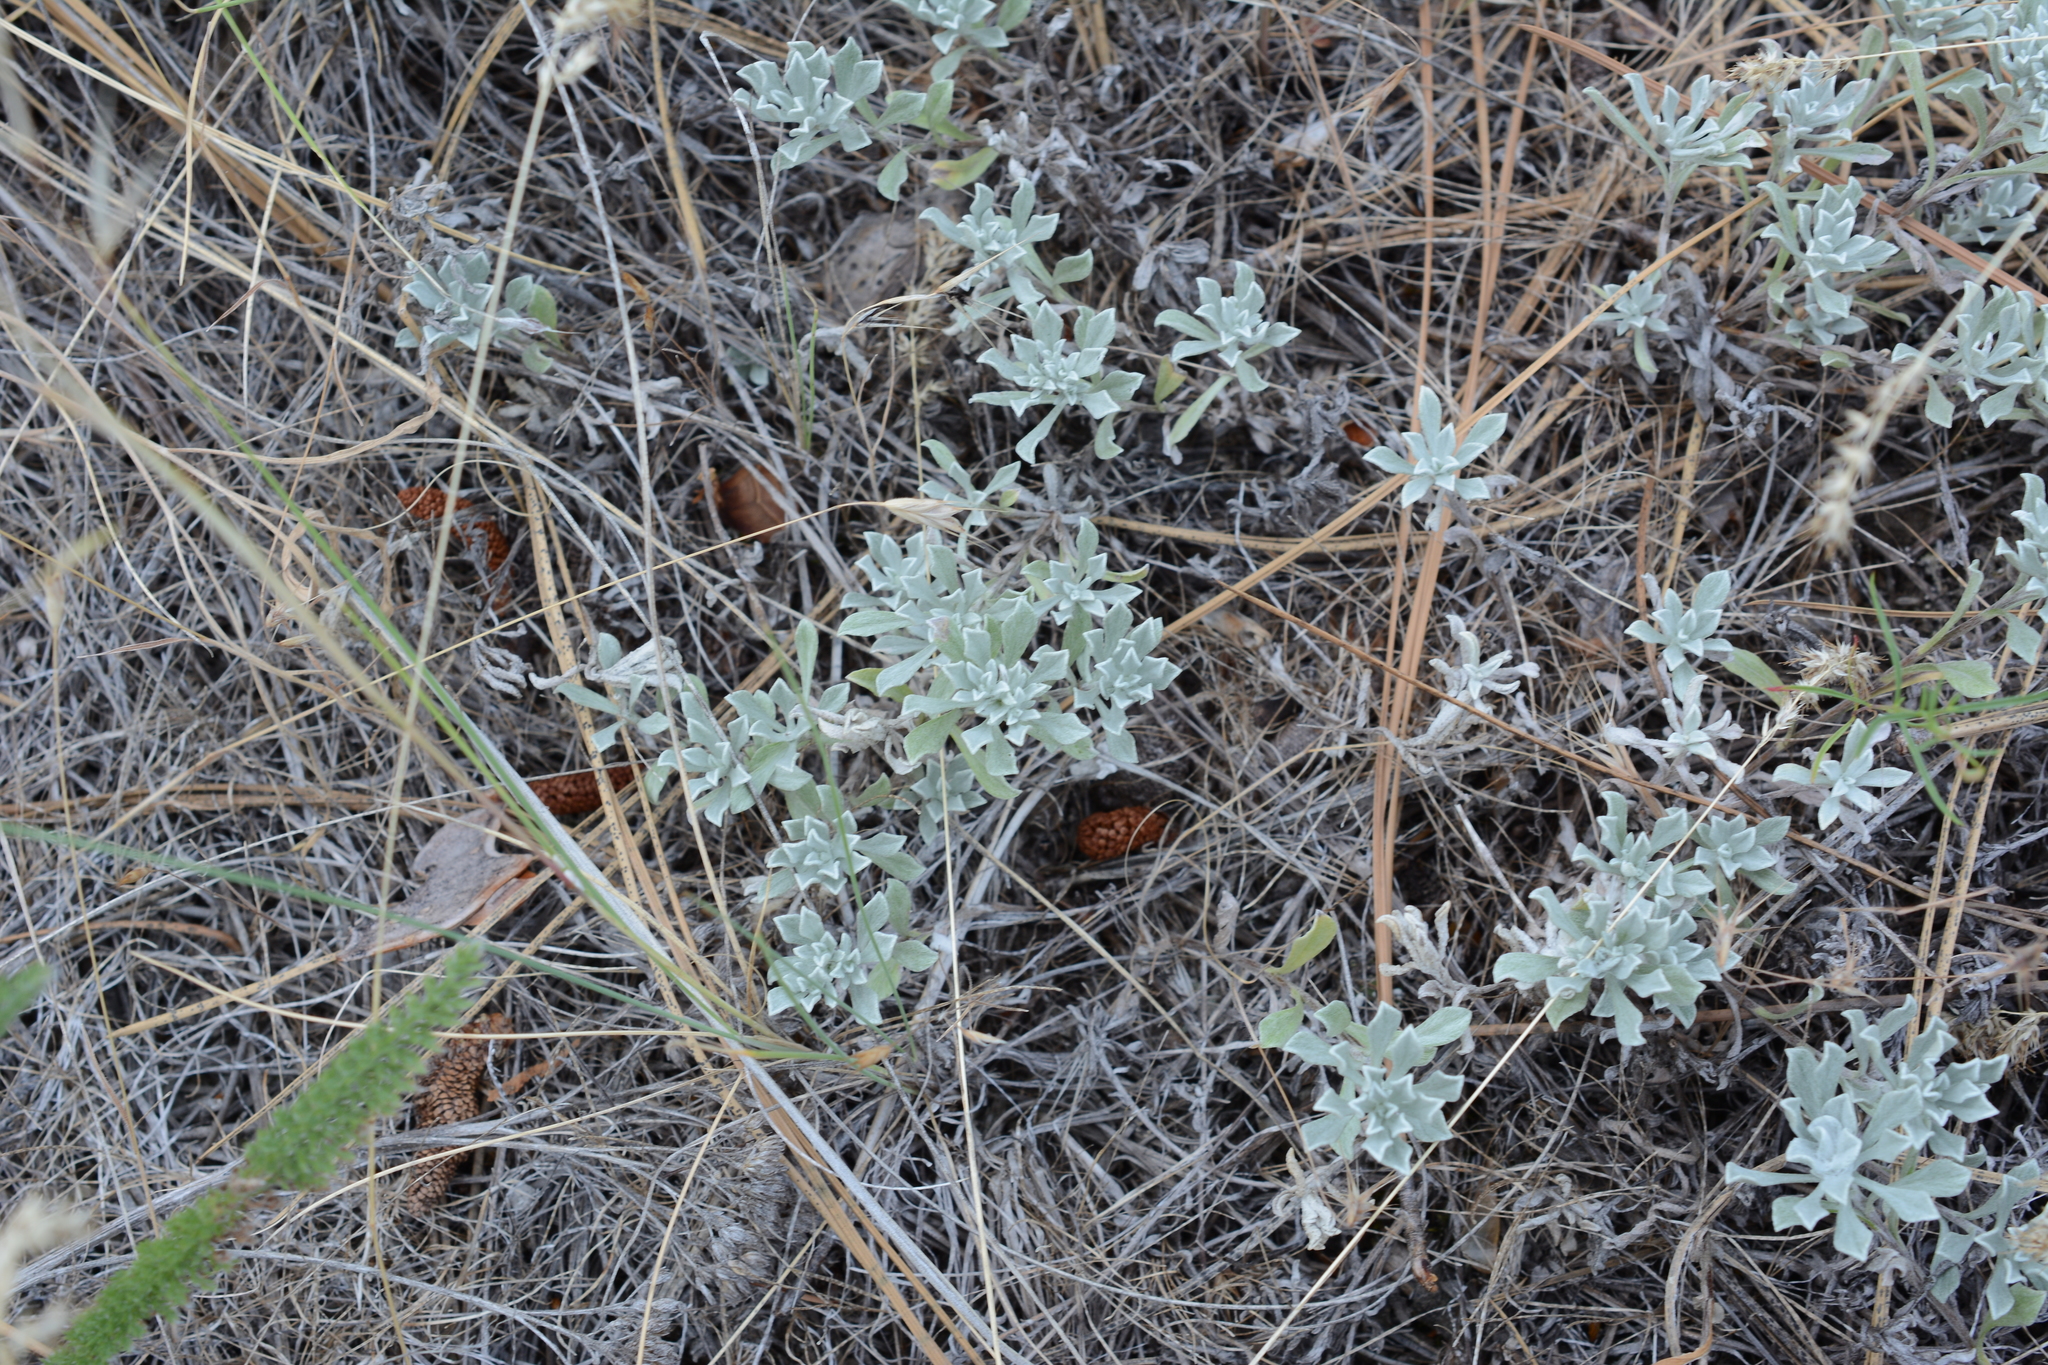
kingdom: Plantae
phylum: Tracheophyta
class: Magnoliopsida
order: Asterales
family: Asteraceae
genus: Antennaria
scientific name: Antennaria umbrinella
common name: Brown pussytoes
